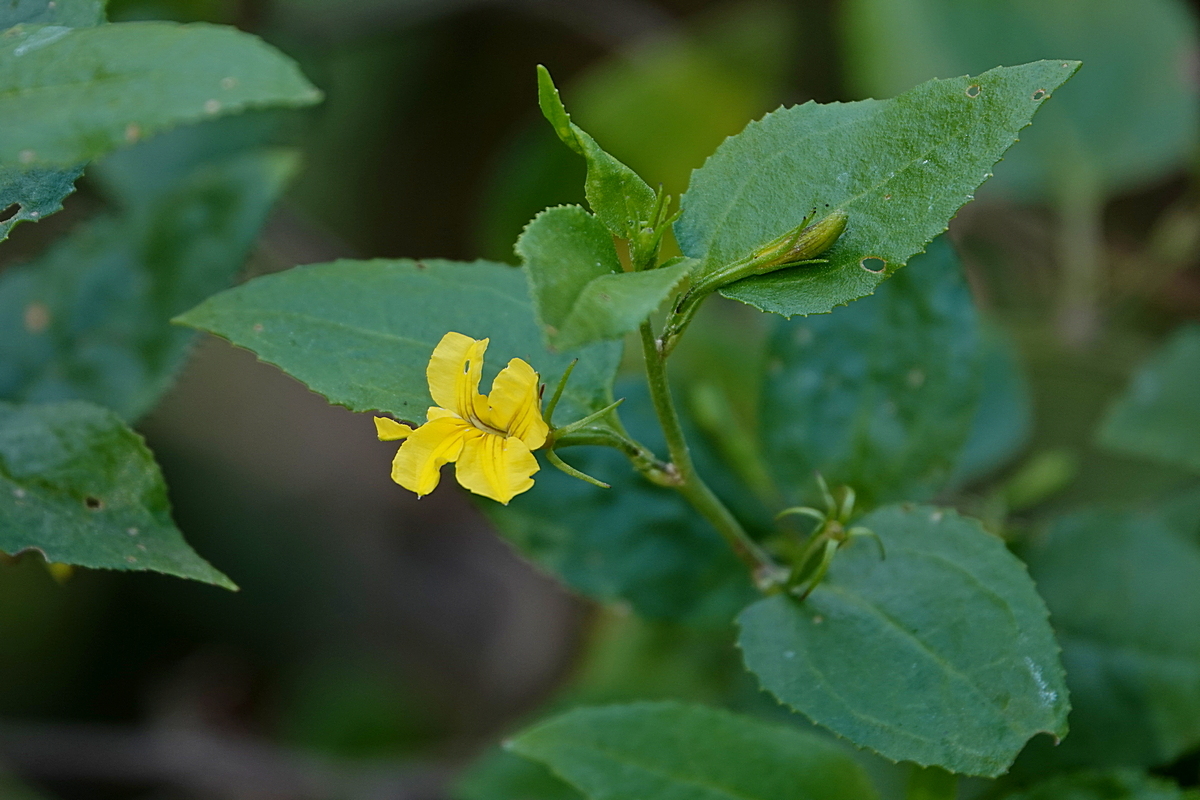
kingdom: Plantae
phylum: Tracheophyta
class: Magnoliopsida
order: Asterales
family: Goodeniaceae
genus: Goodenia
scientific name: Goodenia ovata
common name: Hop goodenia
